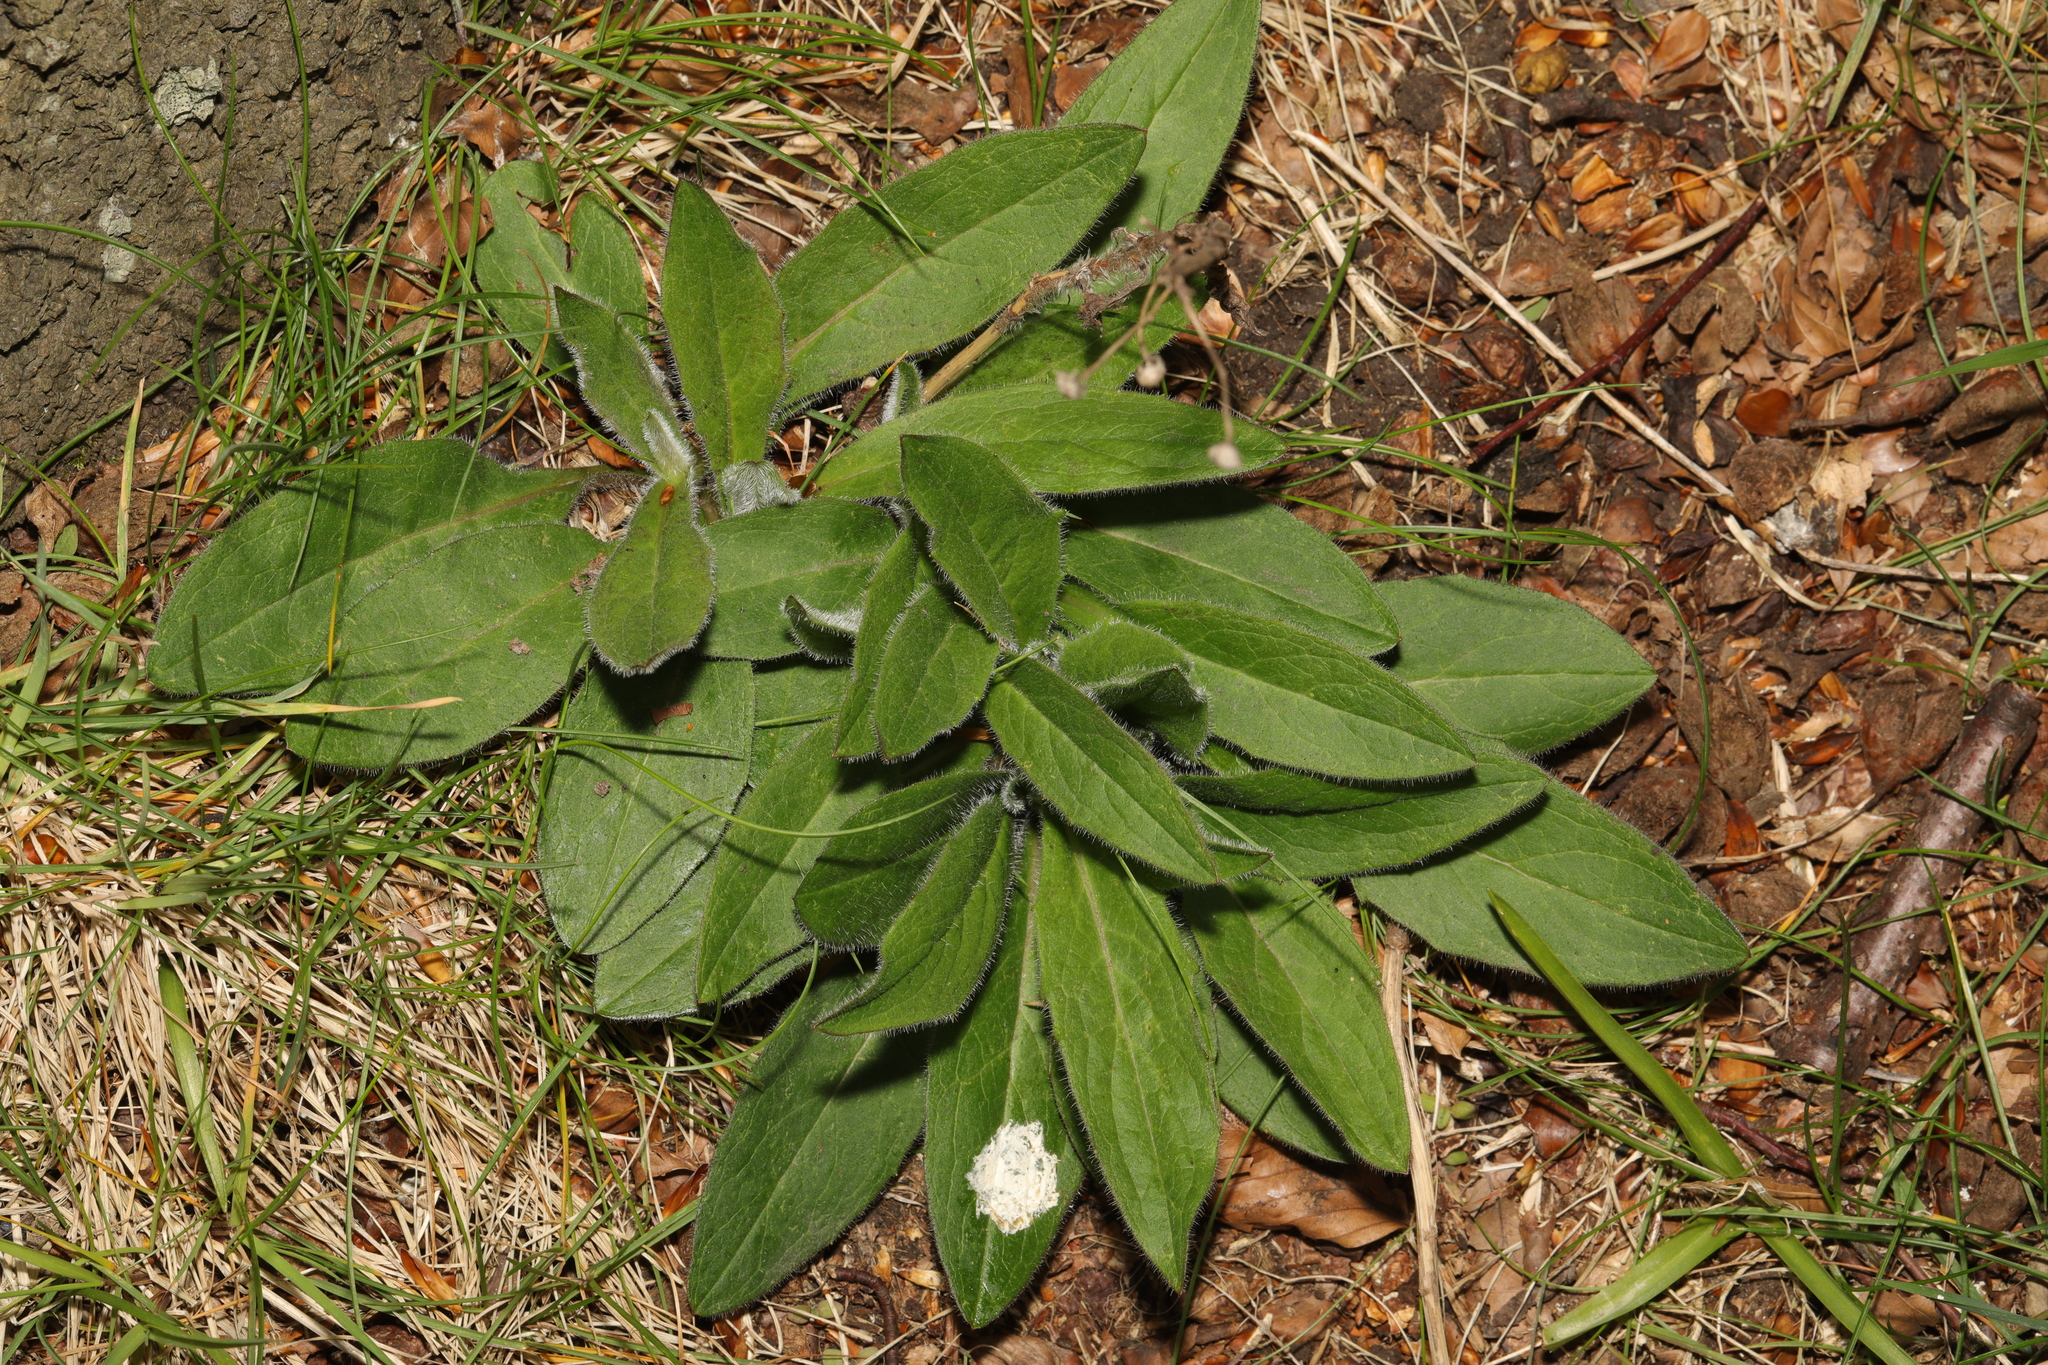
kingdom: Plantae
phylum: Tracheophyta
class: Magnoliopsida
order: Asterales
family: Asteraceae
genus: Hieracium
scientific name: Hieracium sabaudum
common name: New england hawkweed
